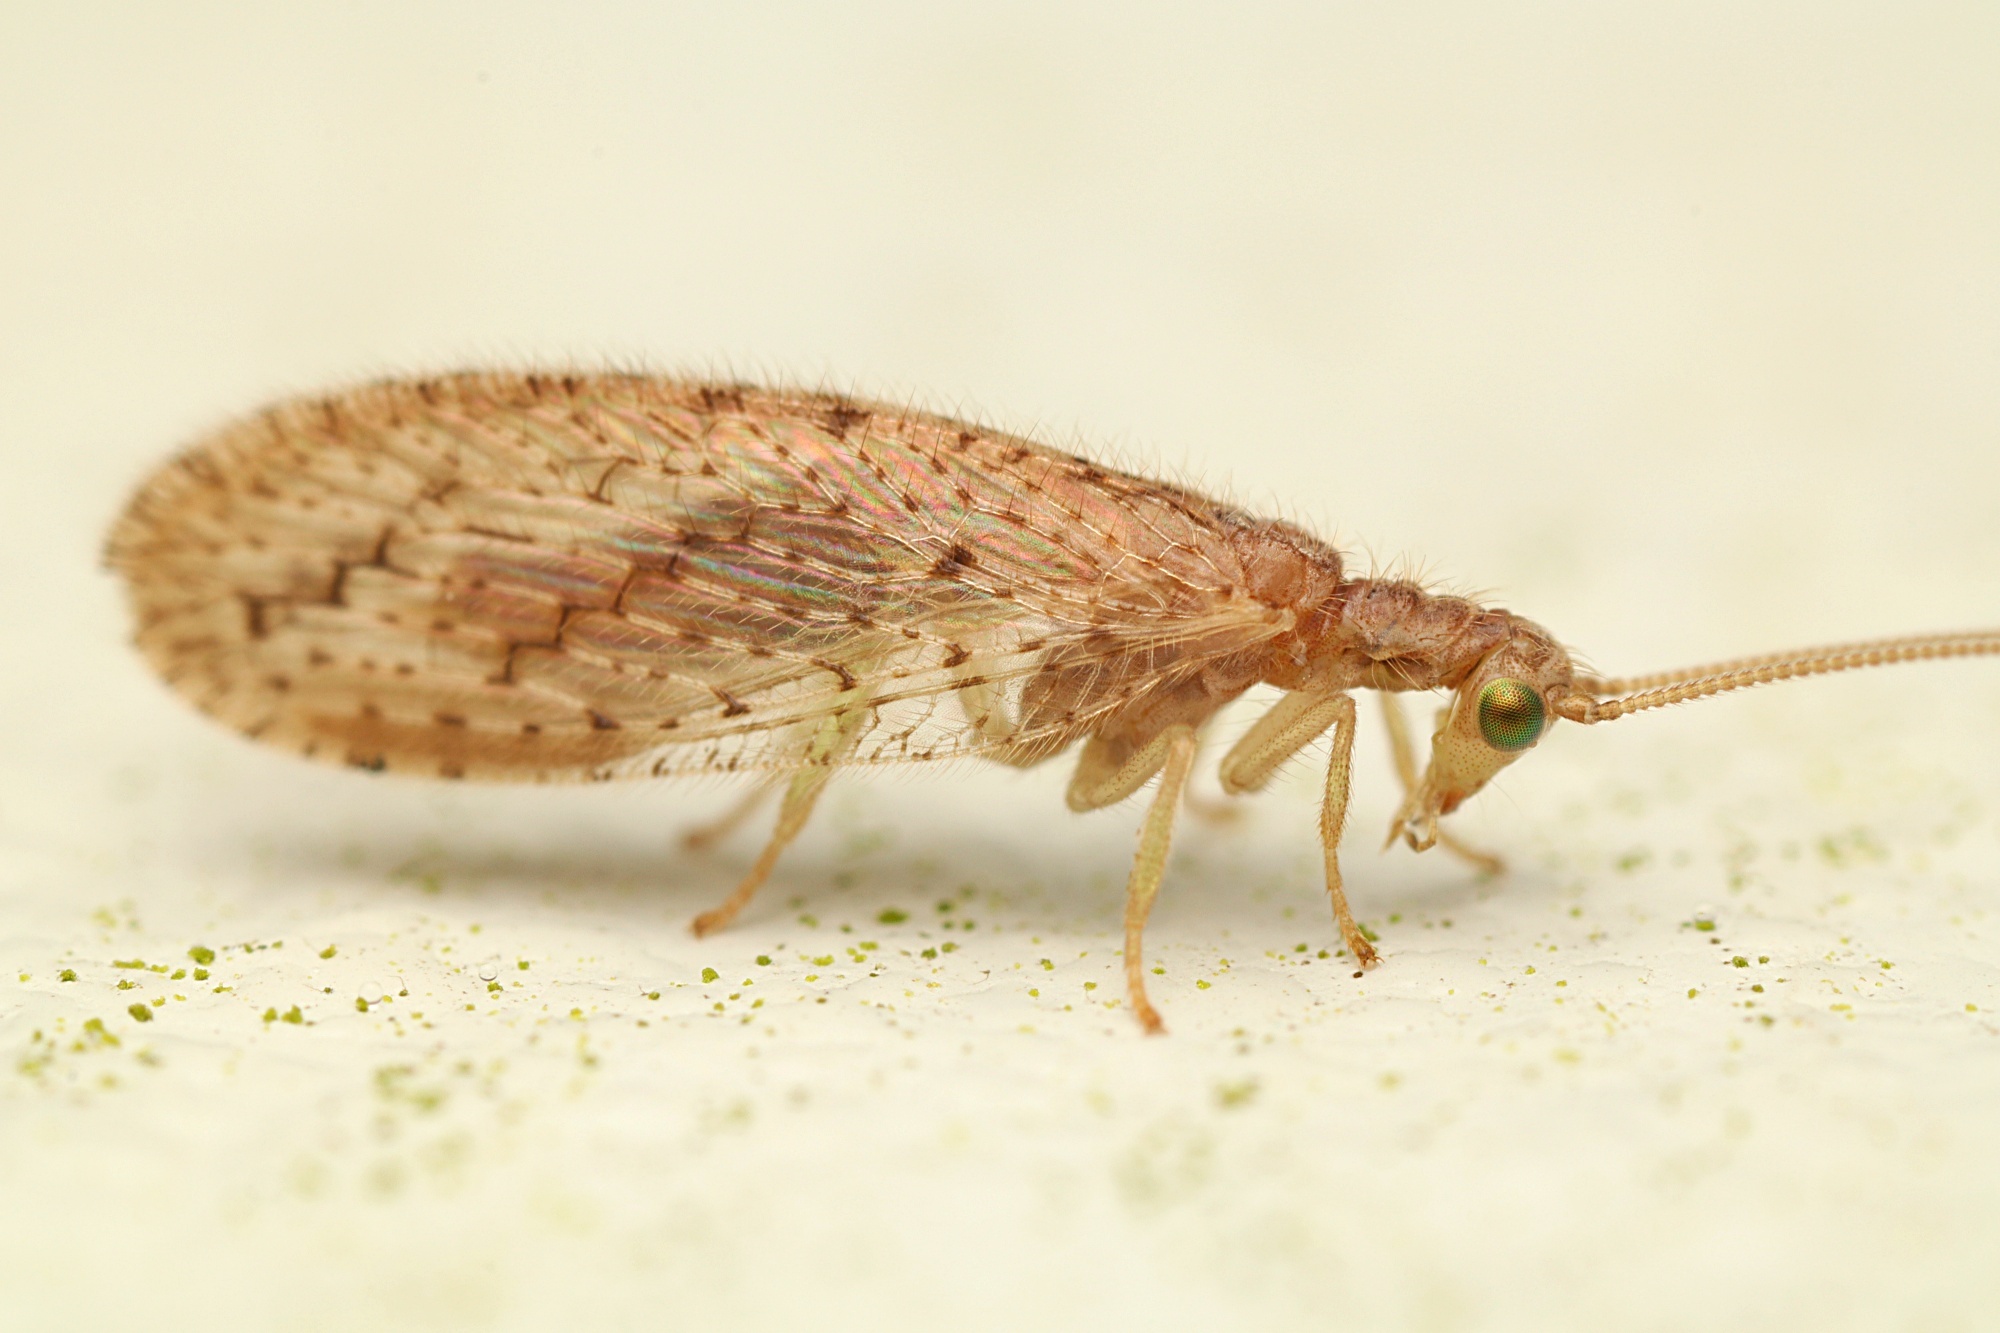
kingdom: Animalia
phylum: Arthropoda
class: Insecta
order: Neuroptera
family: Hemerobiidae
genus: Micromus
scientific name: Micromus tasmaniae
